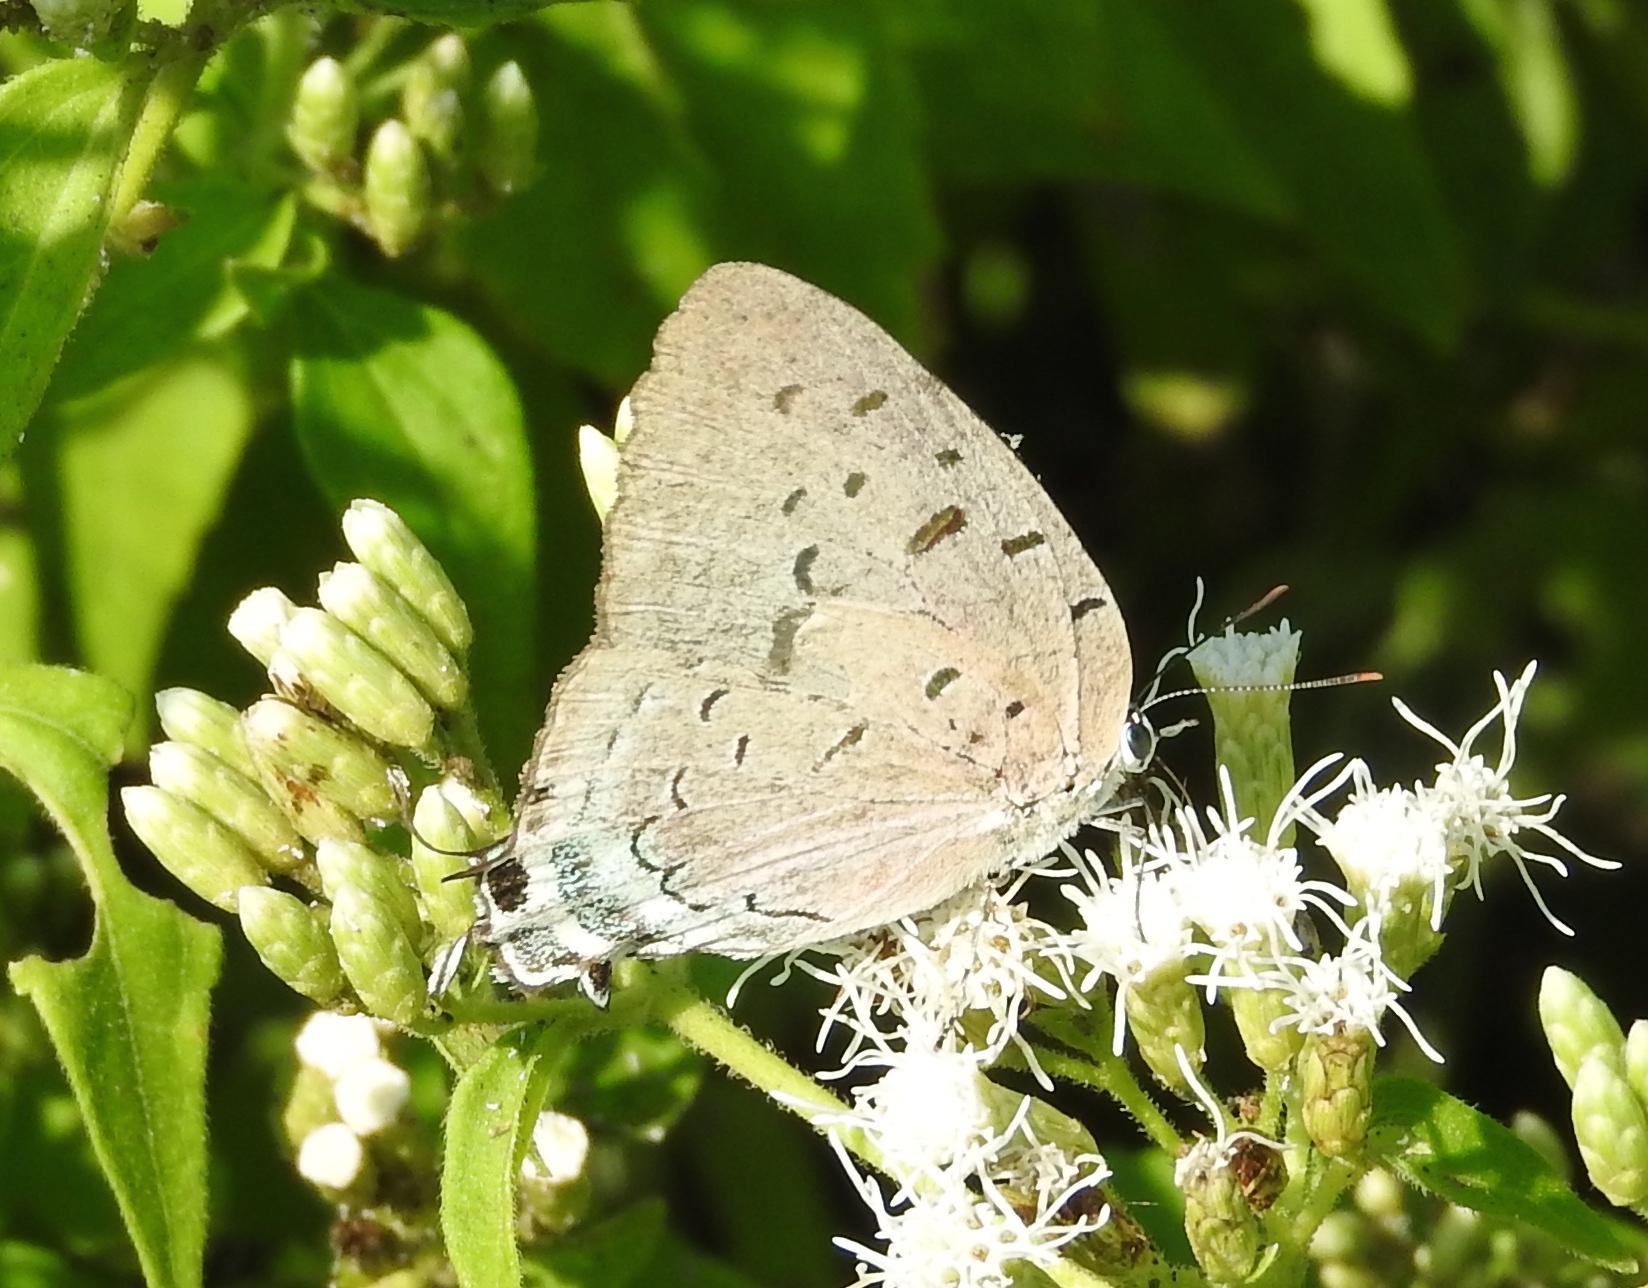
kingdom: Animalia
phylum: Arthropoda
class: Insecta
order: Lepidoptera
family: Lycaenidae
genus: Pseudolycaena
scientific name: Pseudolycaena damo
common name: Sky-blue hairstreak
